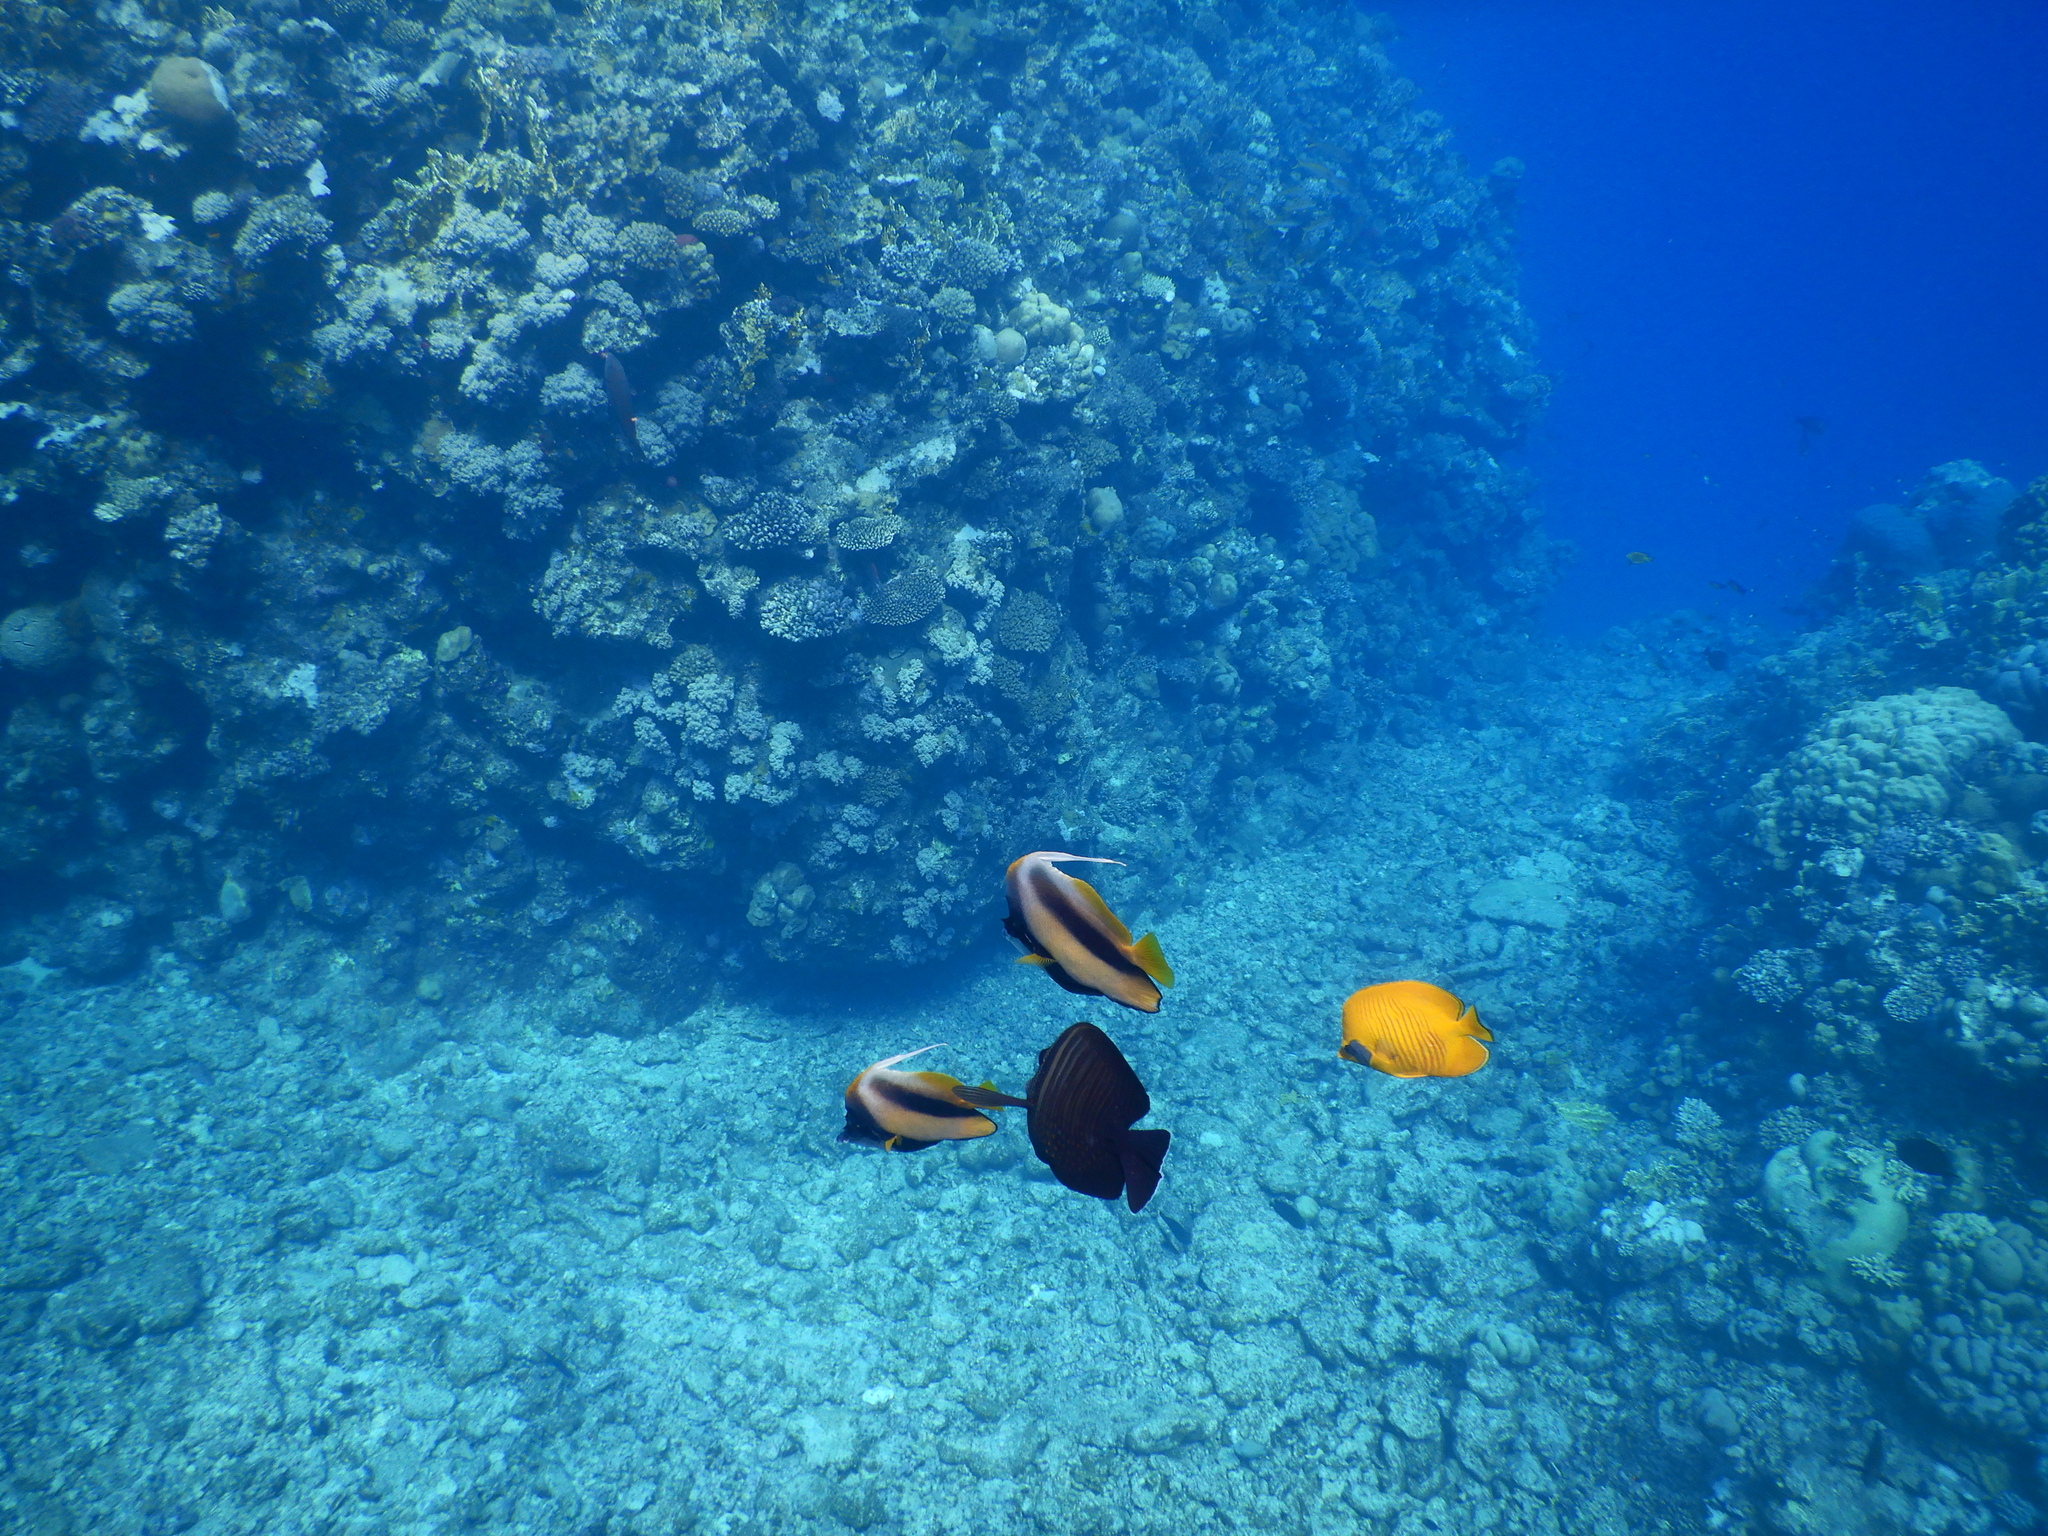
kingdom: Animalia
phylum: Chordata
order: Perciformes
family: Acanthuridae
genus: Zebrasoma
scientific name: Zebrasoma desjardinii
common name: Desjardin's sailfin tang
